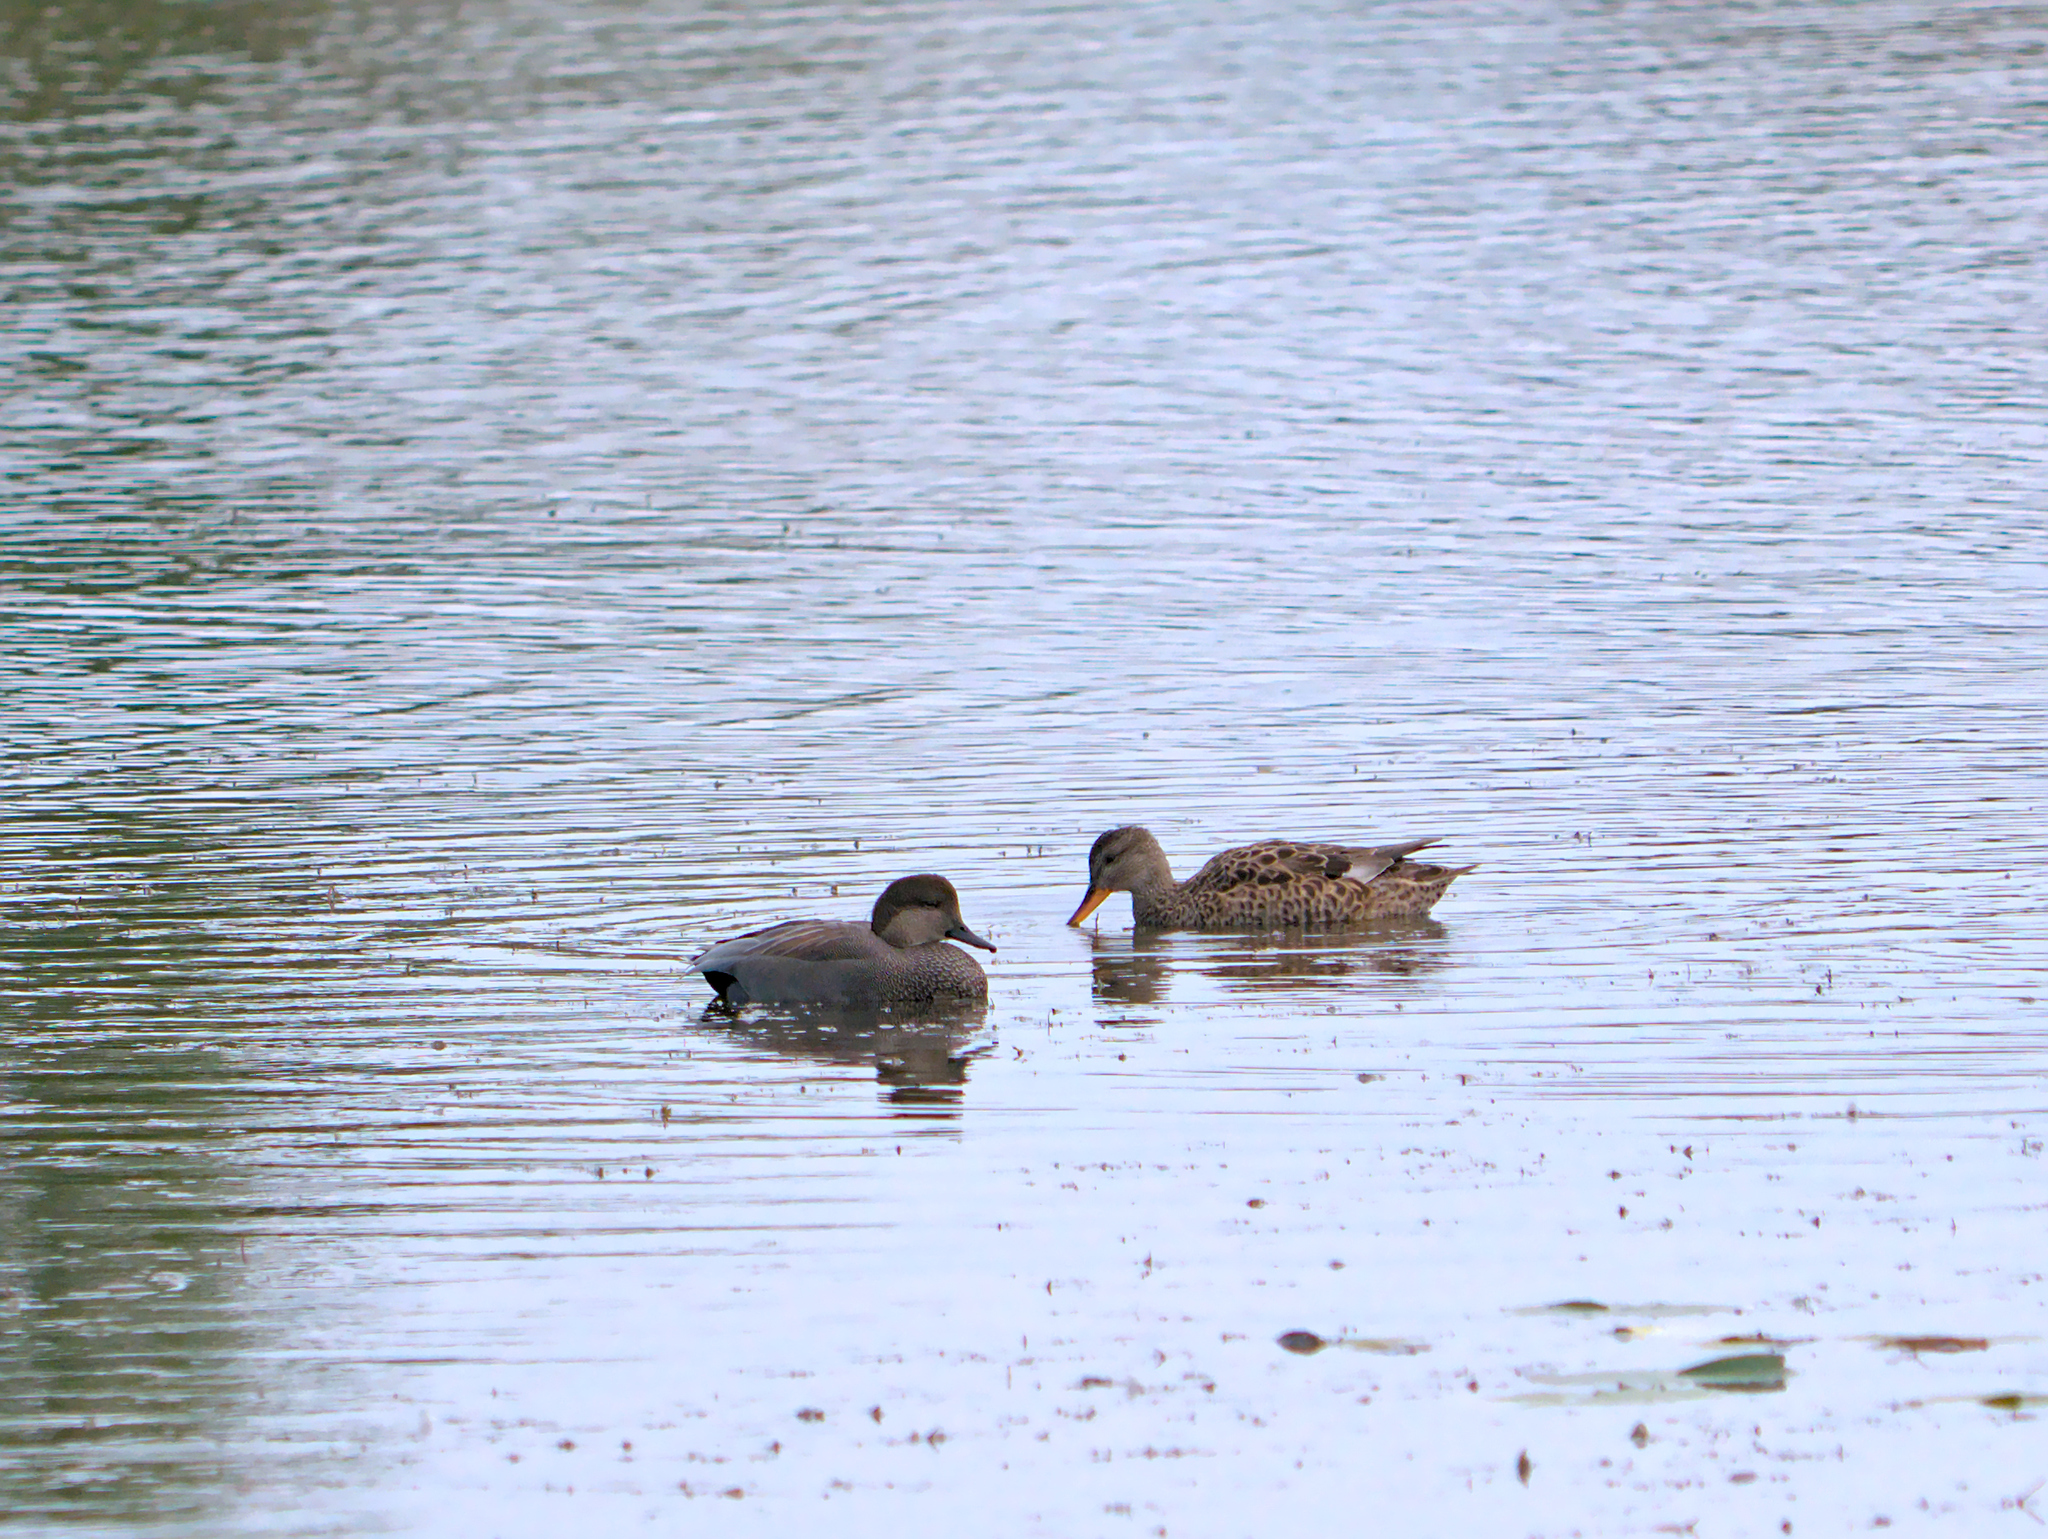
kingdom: Animalia
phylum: Chordata
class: Aves
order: Anseriformes
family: Anatidae
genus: Mareca
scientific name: Mareca strepera
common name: Gadwall
